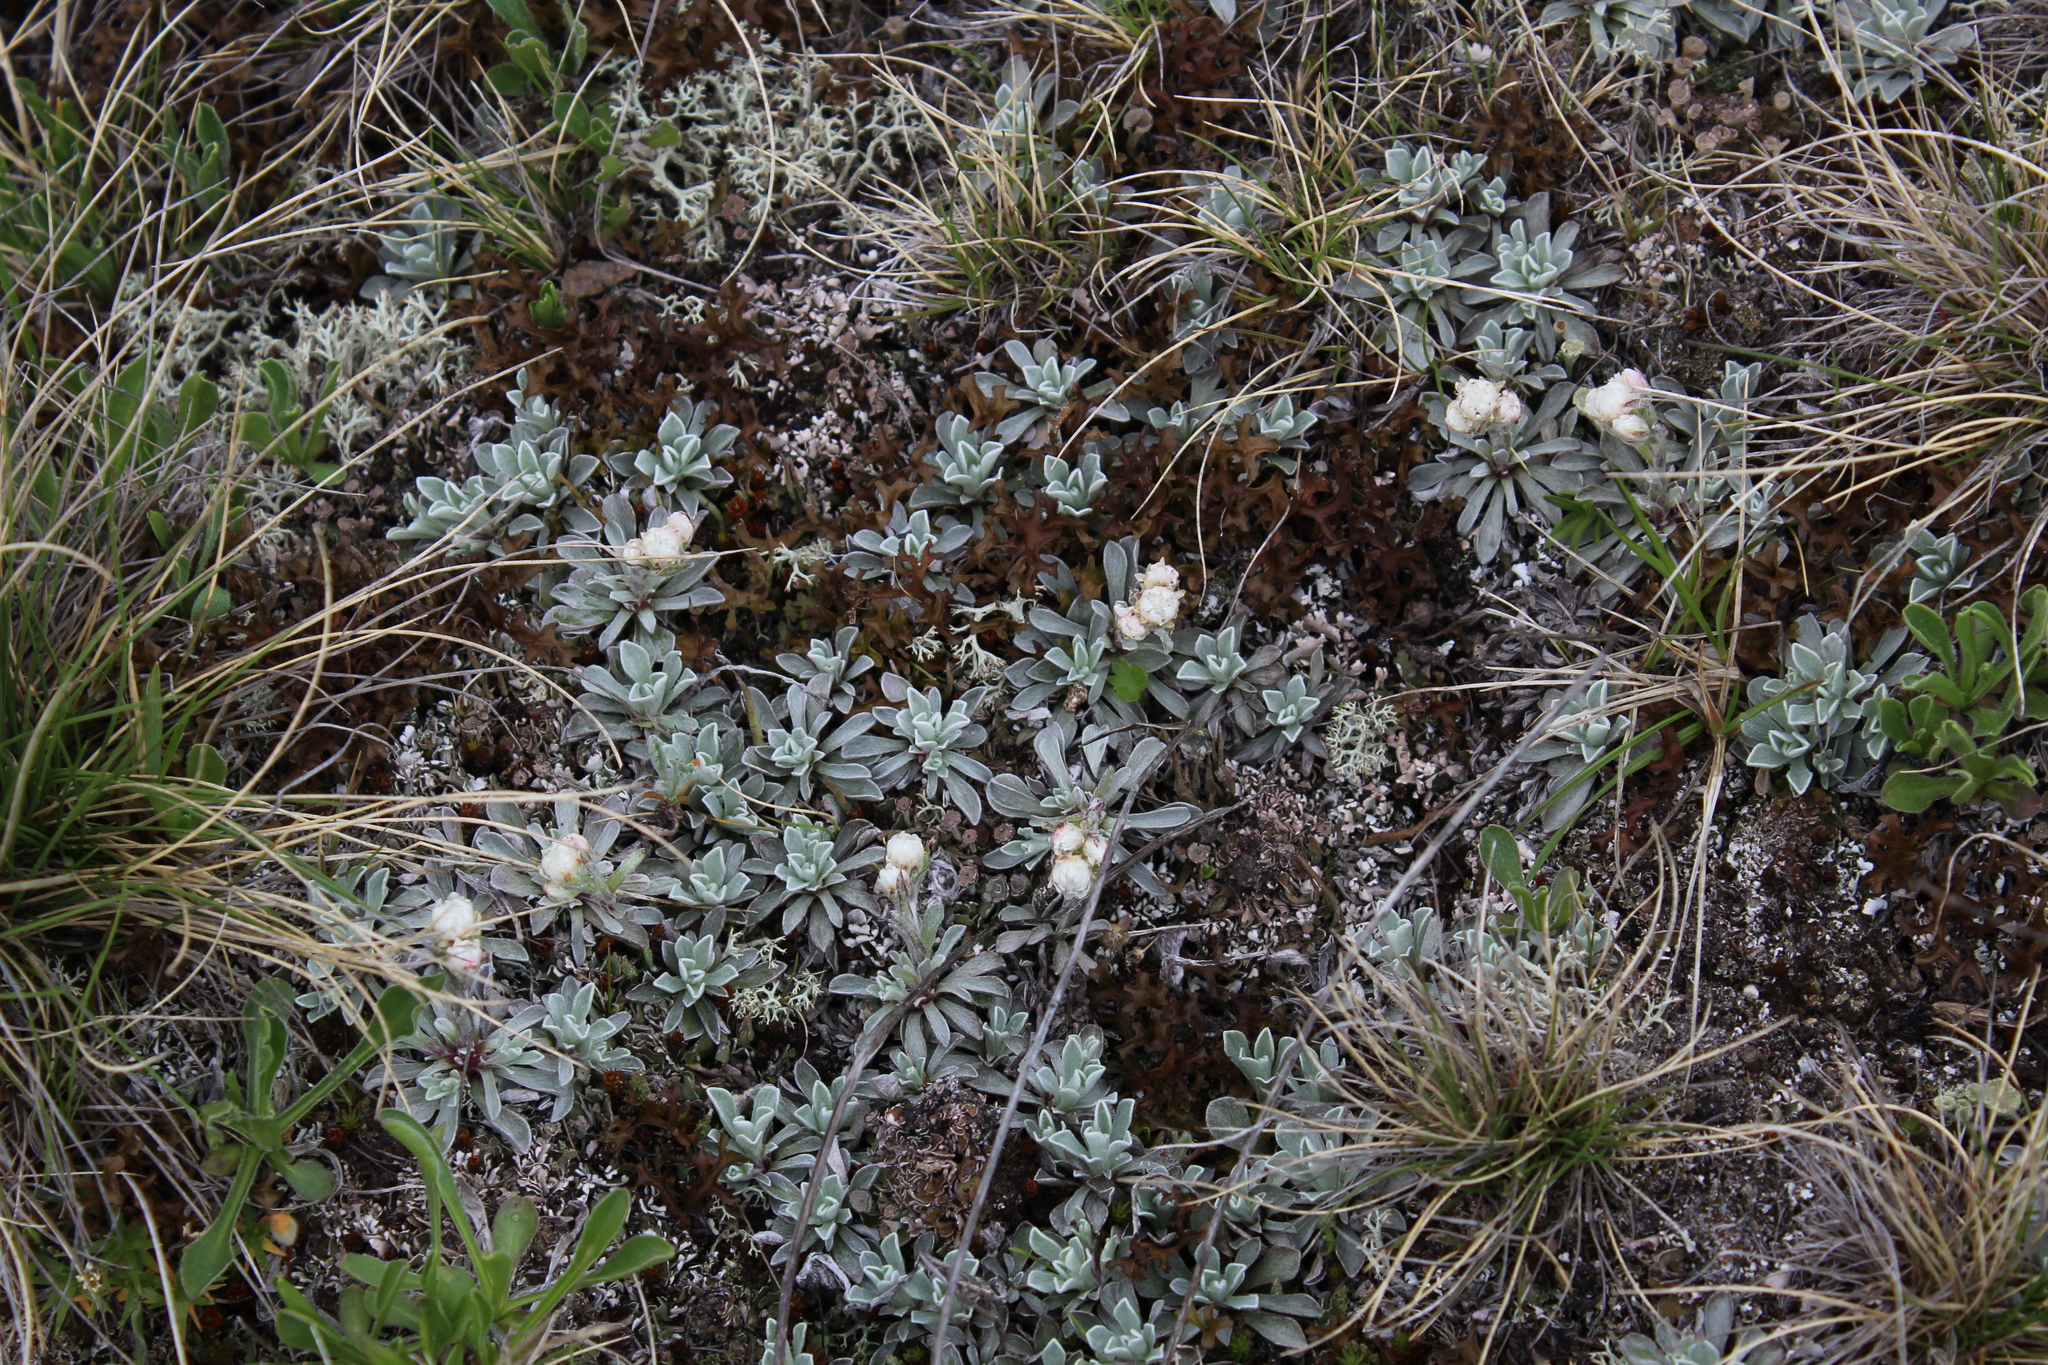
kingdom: Plantae
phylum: Tracheophyta
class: Magnoliopsida
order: Asterales
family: Asteraceae
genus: Antennaria
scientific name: Antennaria caucasica
